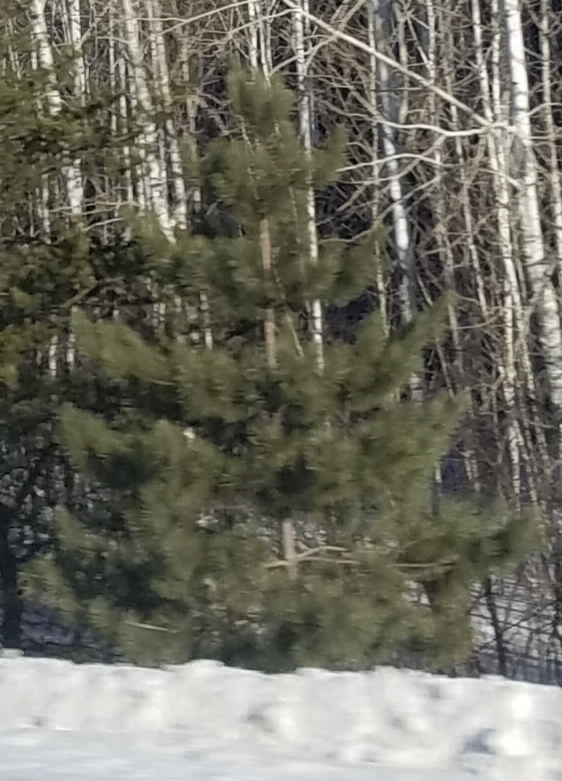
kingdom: Plantae
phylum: Tracheophyta
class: Pinopsida
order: Pinales
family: Pinaceae
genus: Pinus
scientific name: Pinus strobus
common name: Weymouth pine
